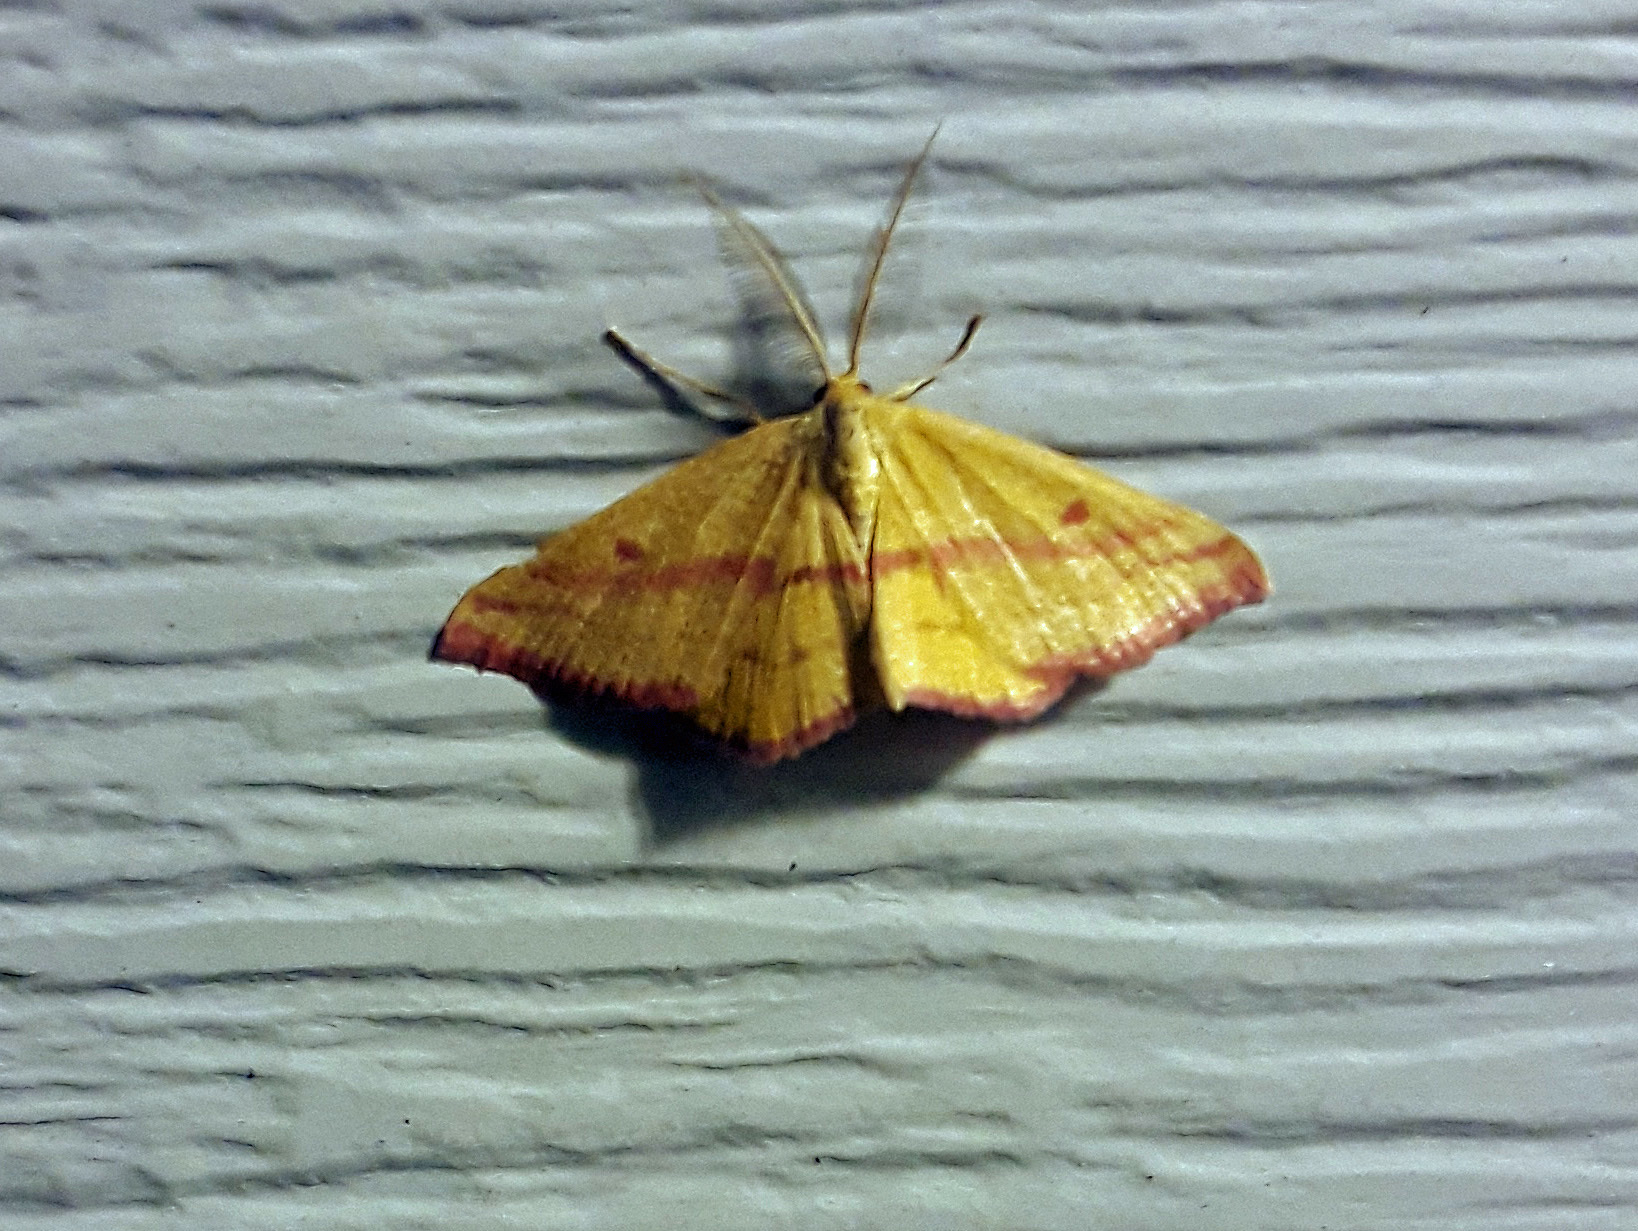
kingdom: Animalia
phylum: Arthropoda
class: Insecta
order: Lepidoptera
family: Geometridae
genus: Haematopis
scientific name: Haematopis grataria
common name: Chickweed geometer
